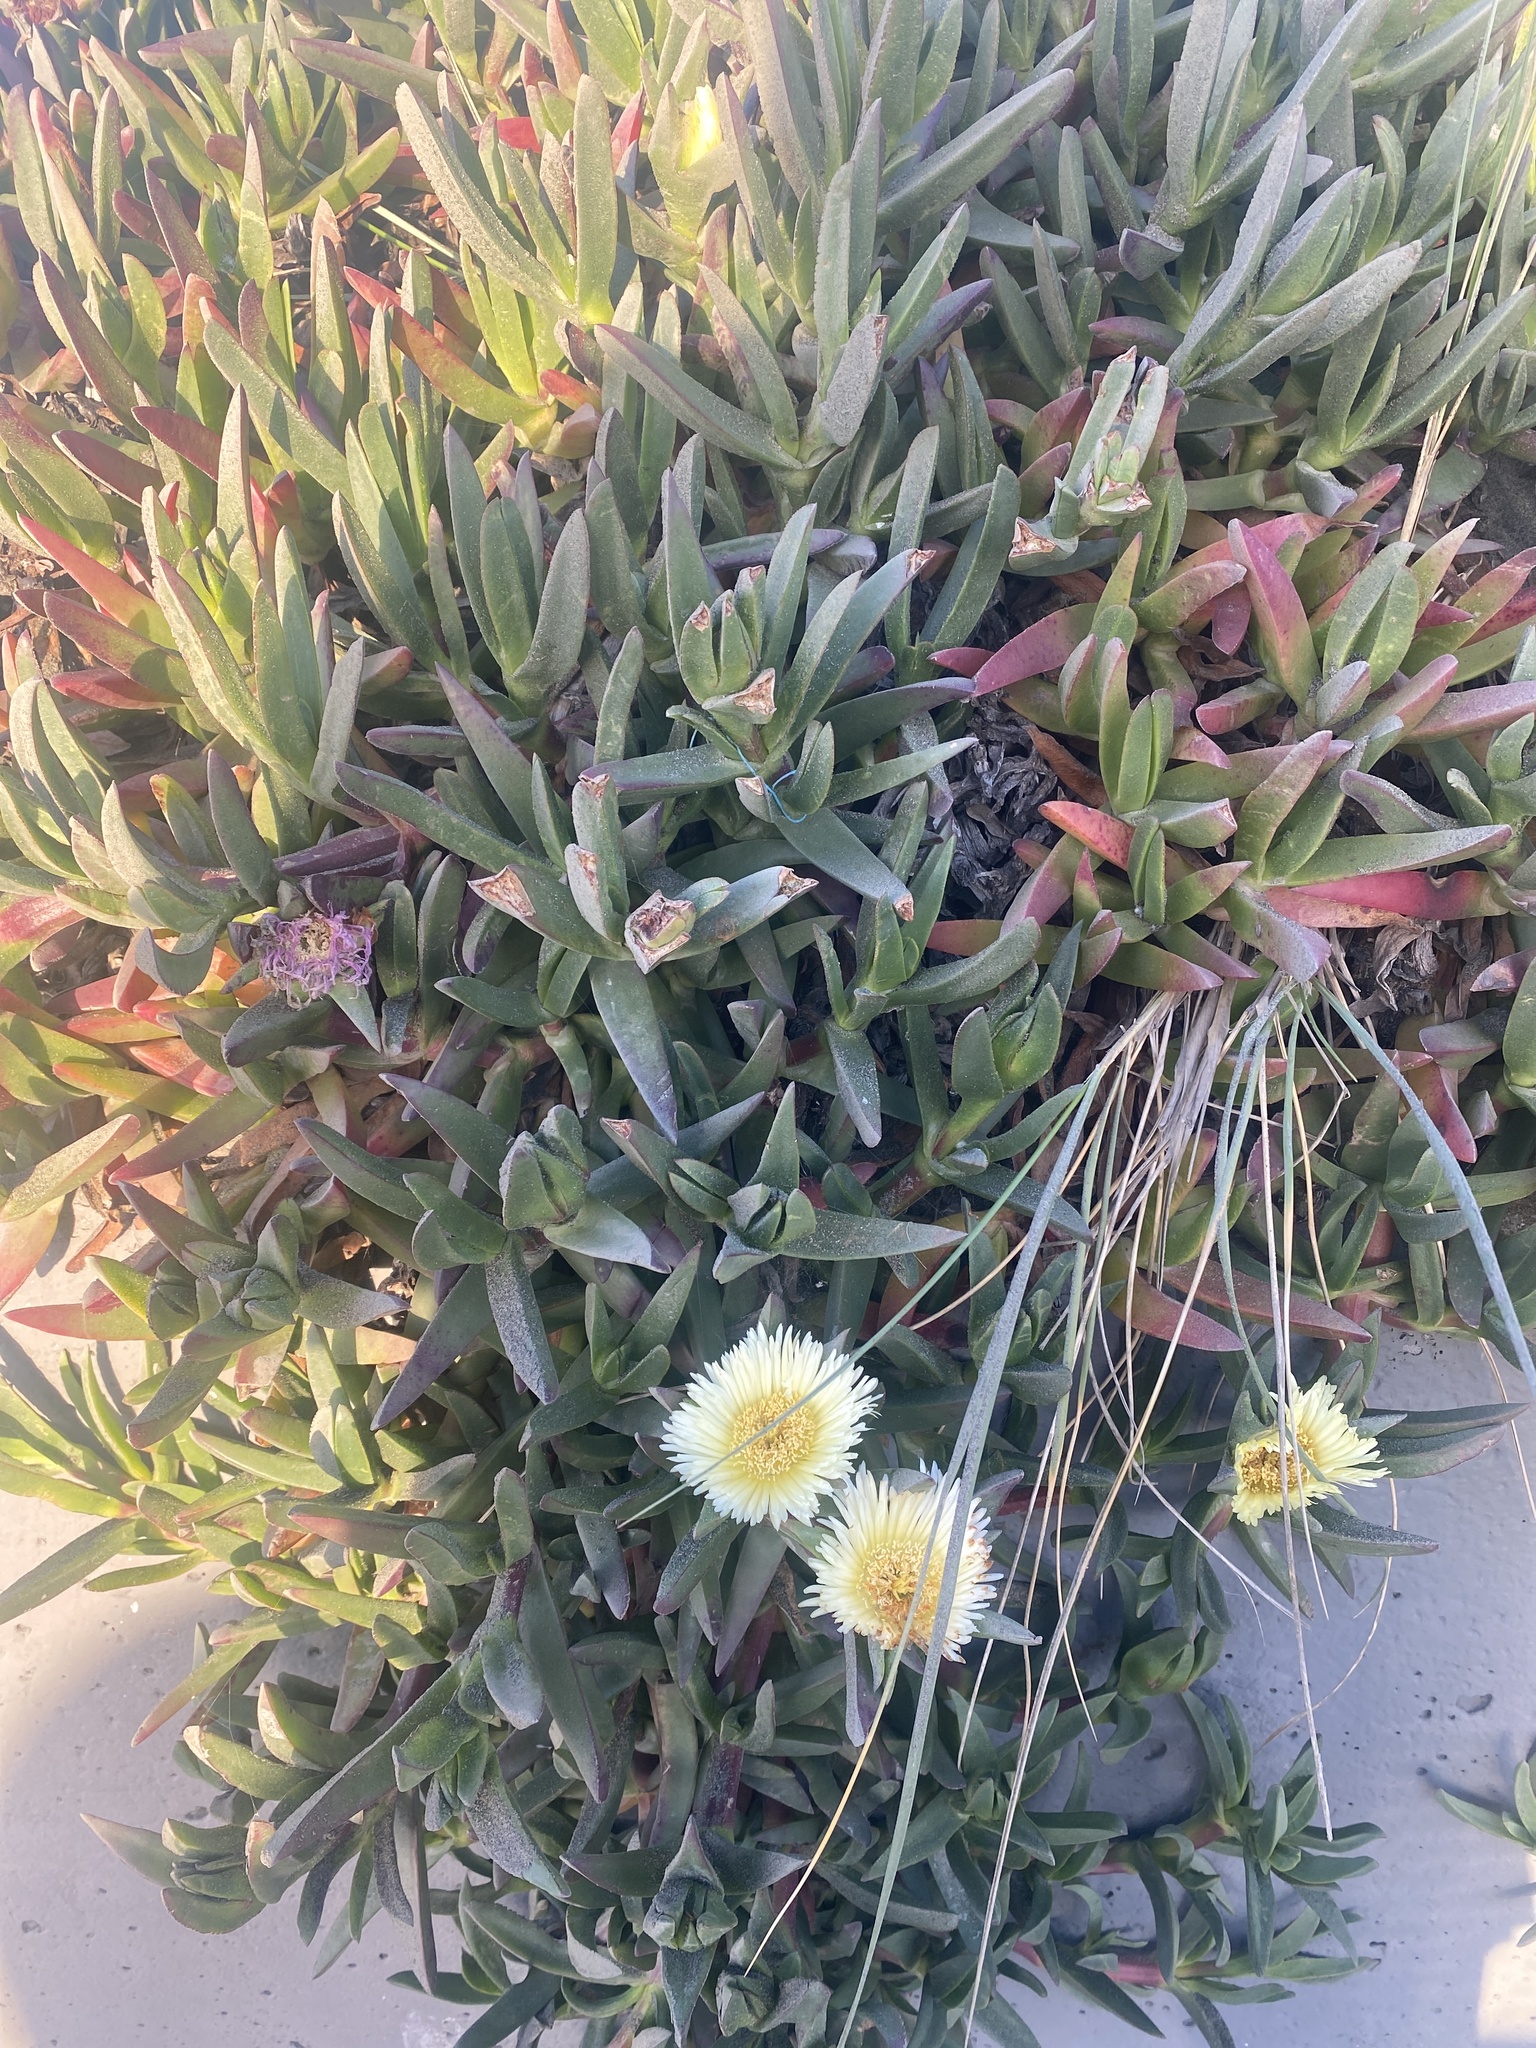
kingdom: Plantae
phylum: Tracheophyta
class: Magnoliopsida
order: Caryophyllales
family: Aizoaceae
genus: Carpobrotus
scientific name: Carpobrotus edulis
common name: Hottentot-fig
